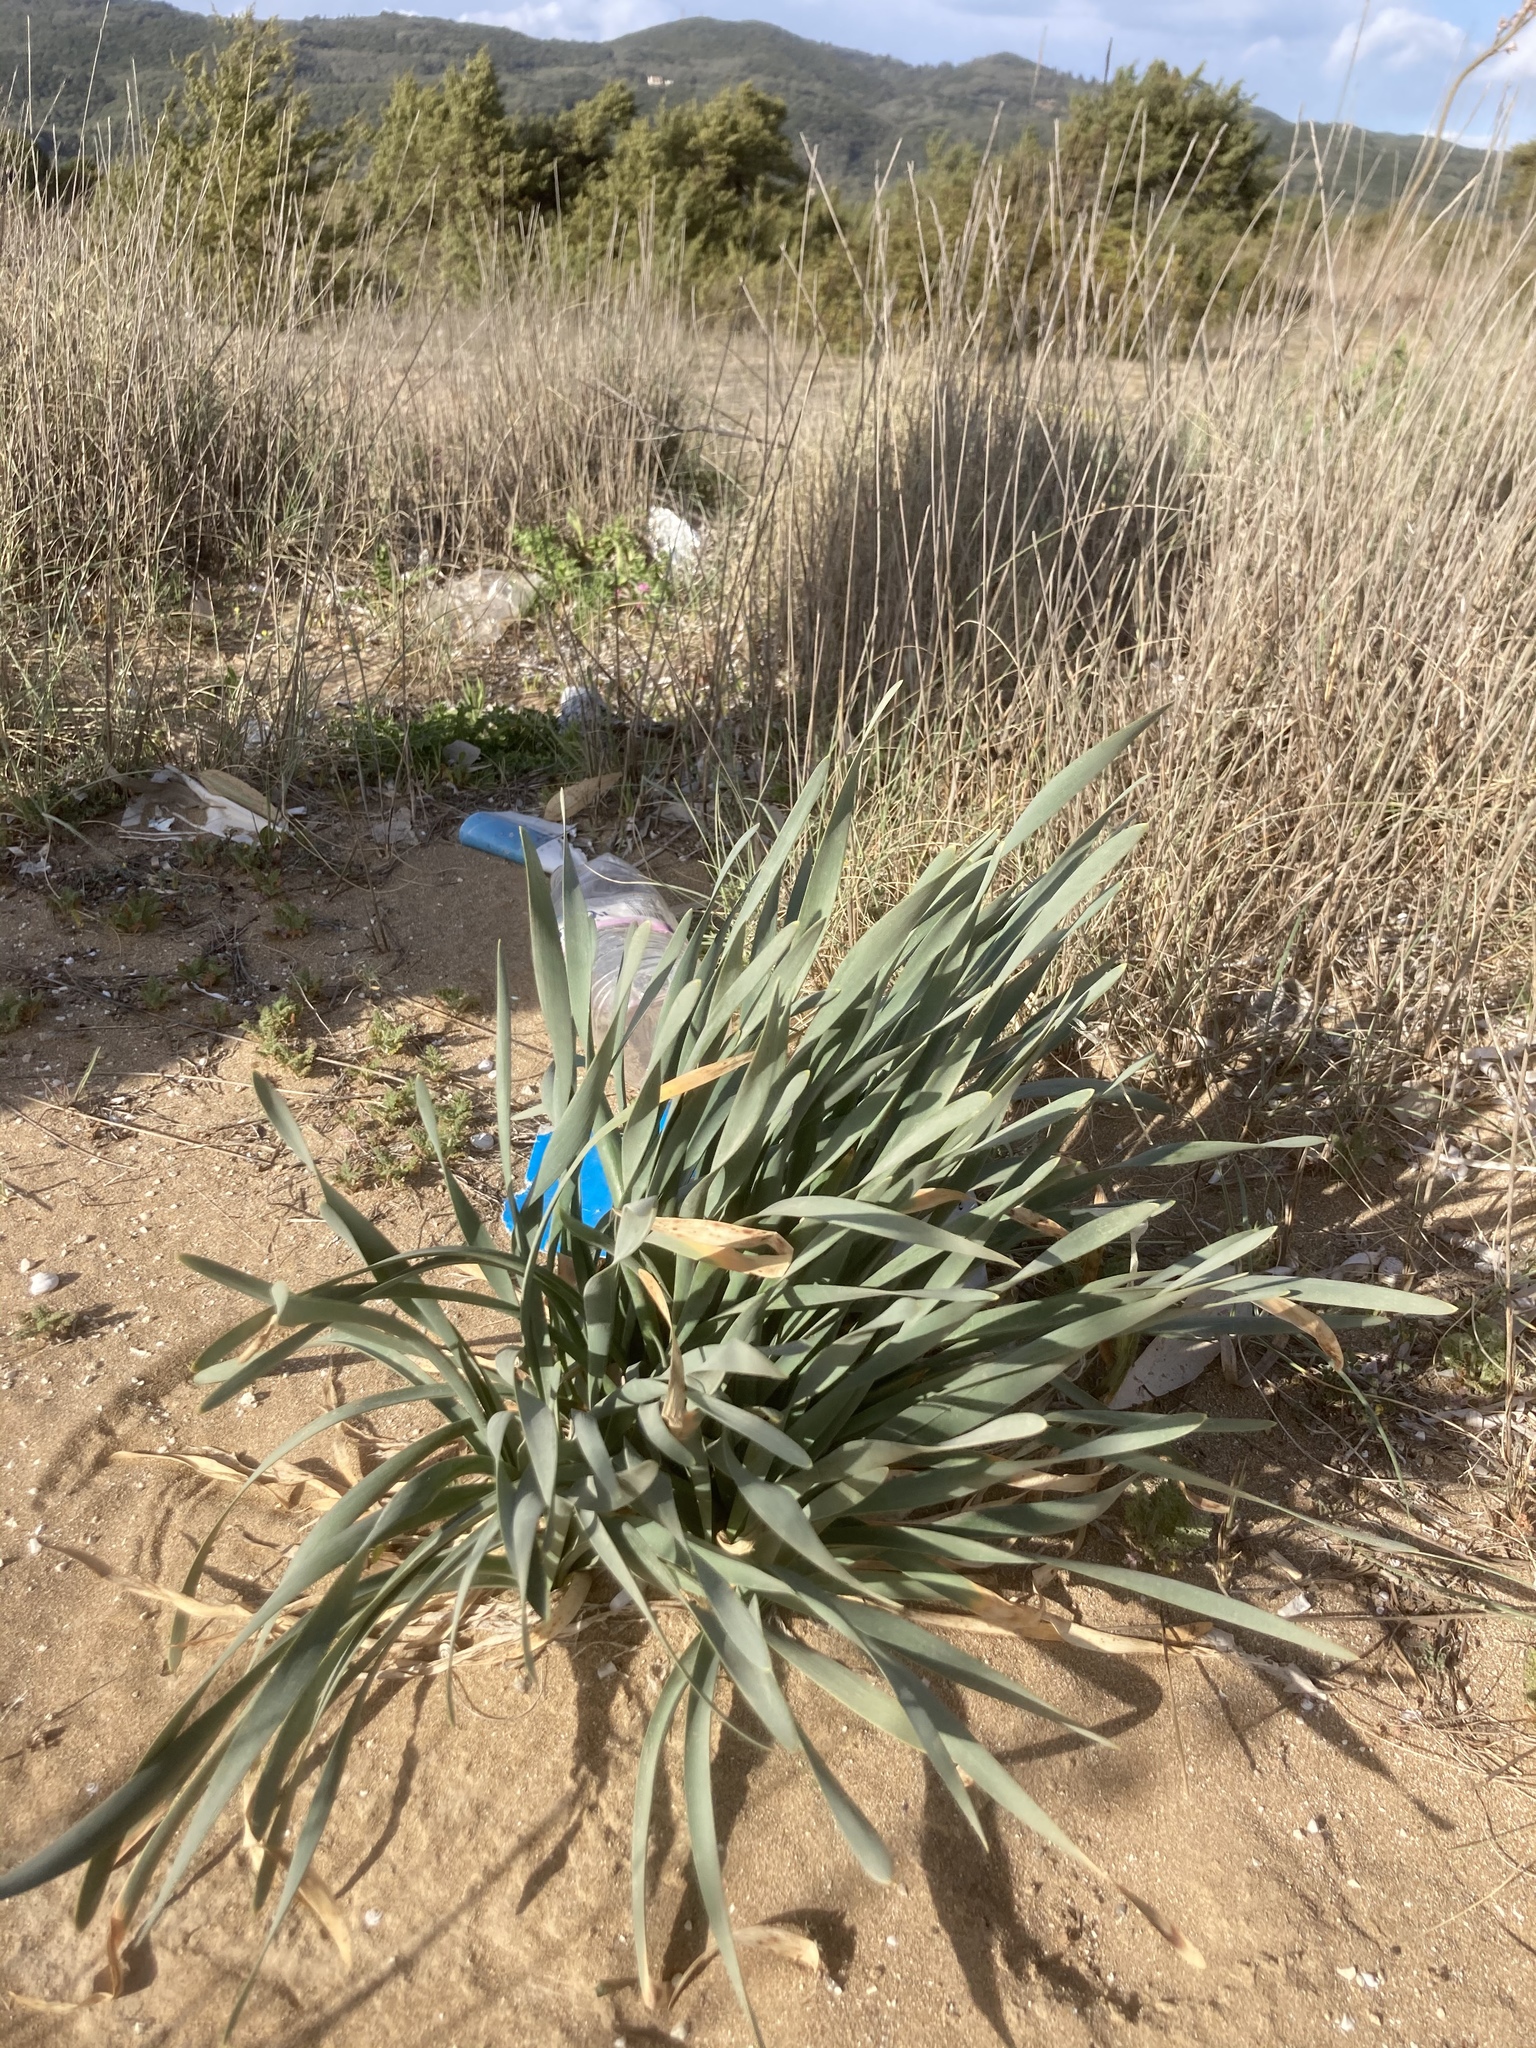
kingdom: Plantae
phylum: Tracheophyta
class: Liliopsida
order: Asparagales
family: Amaryllidaceae
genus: Pancratium
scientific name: Pancratium maritimum
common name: Sea-daffodil
